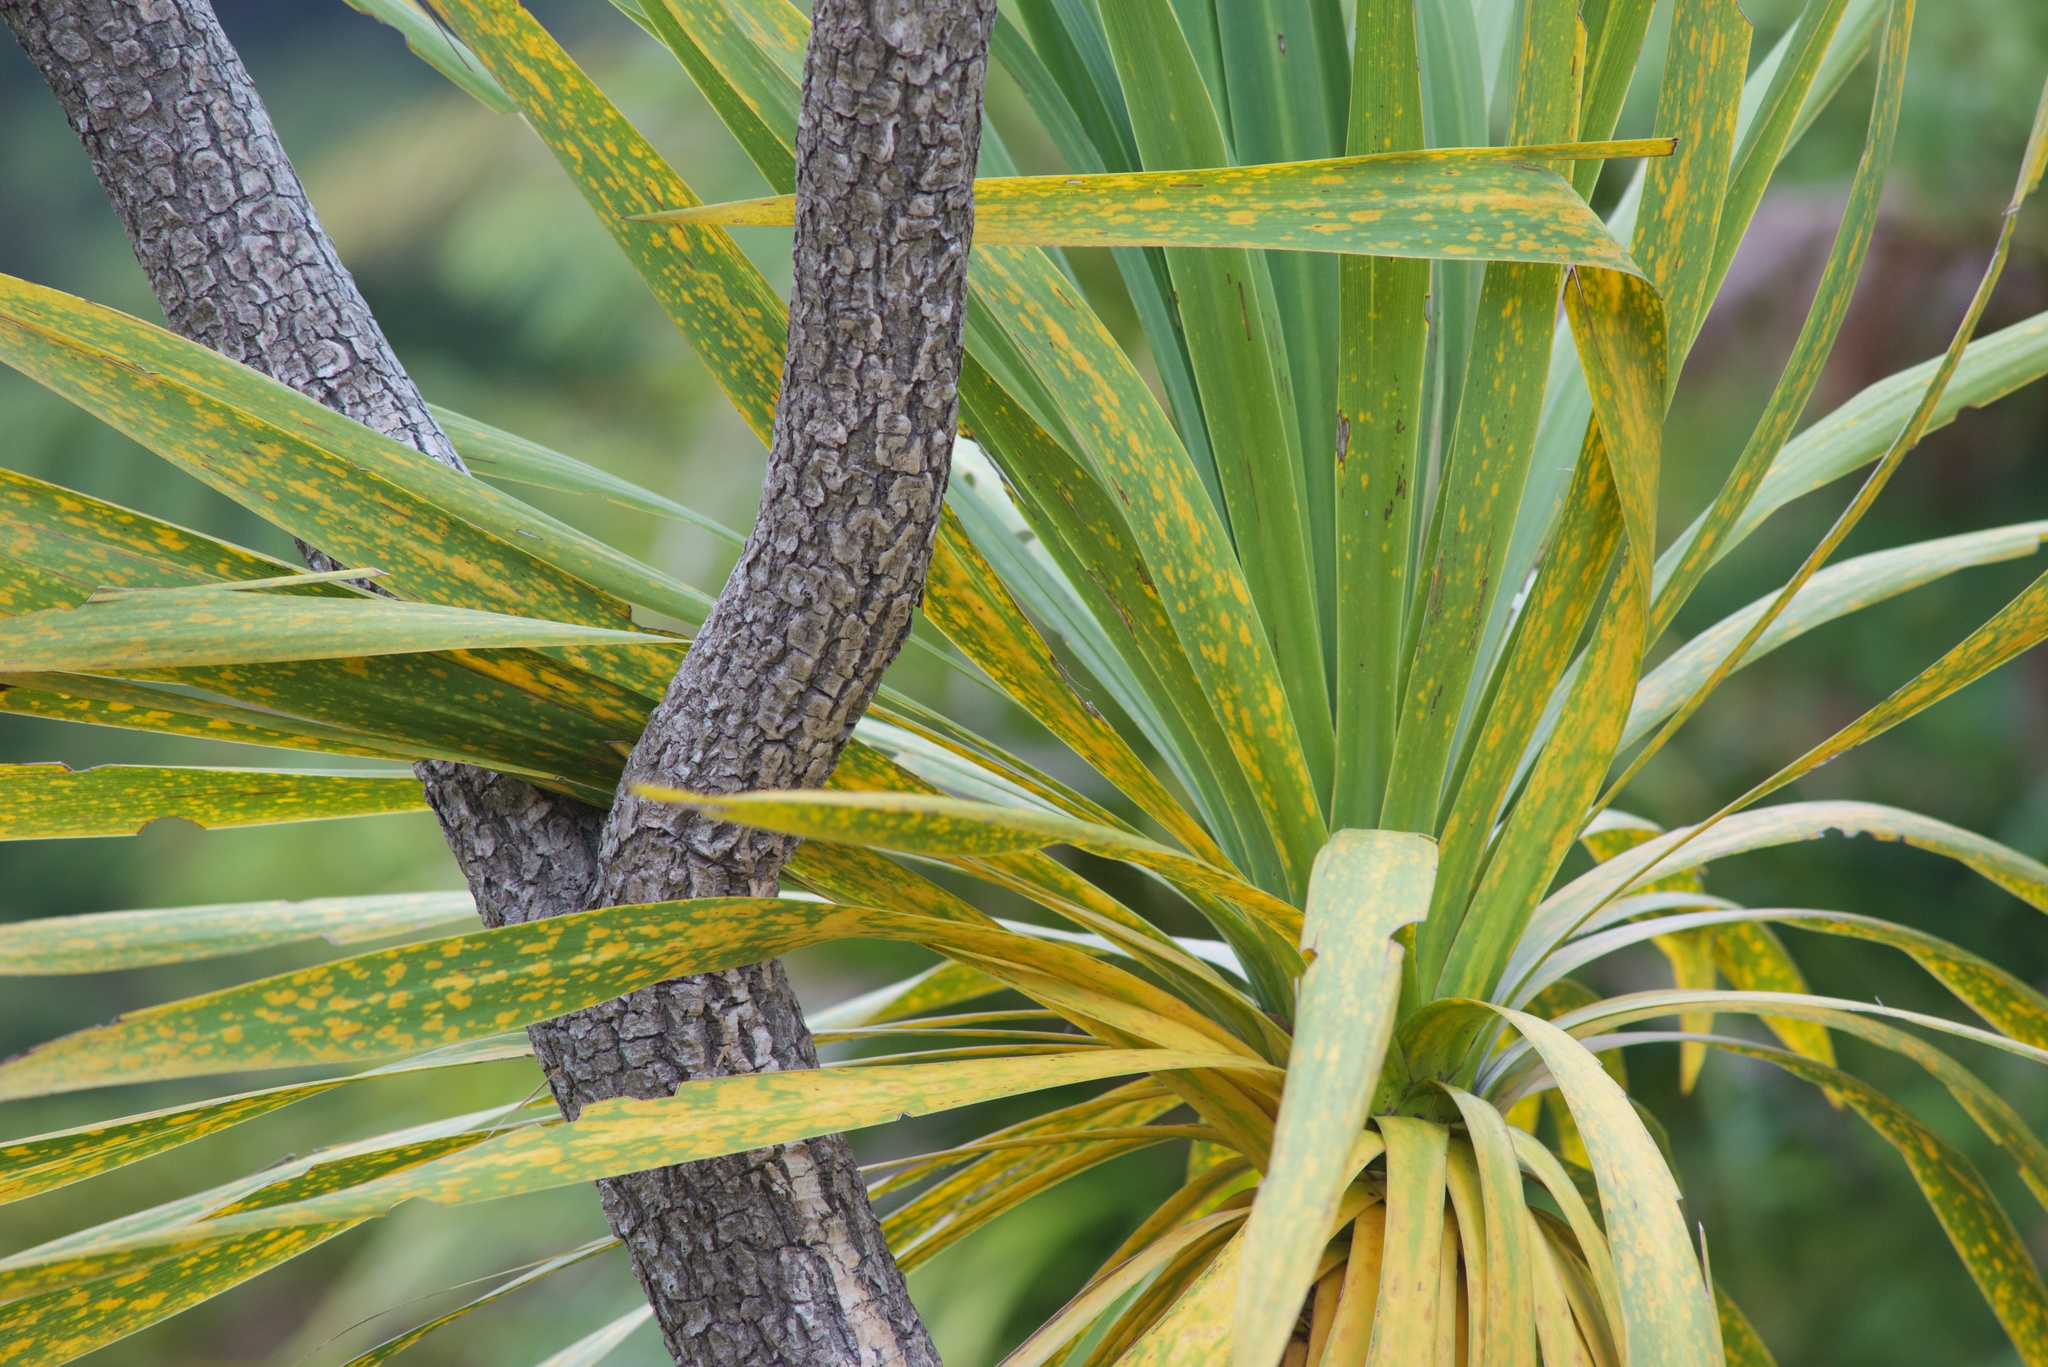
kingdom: Plantae
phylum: Tracheophyta
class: Liliopsida
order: Asparagales
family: Asparagaceae
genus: Cordyline
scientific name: Cordyline australis
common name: Cabbage-palm
